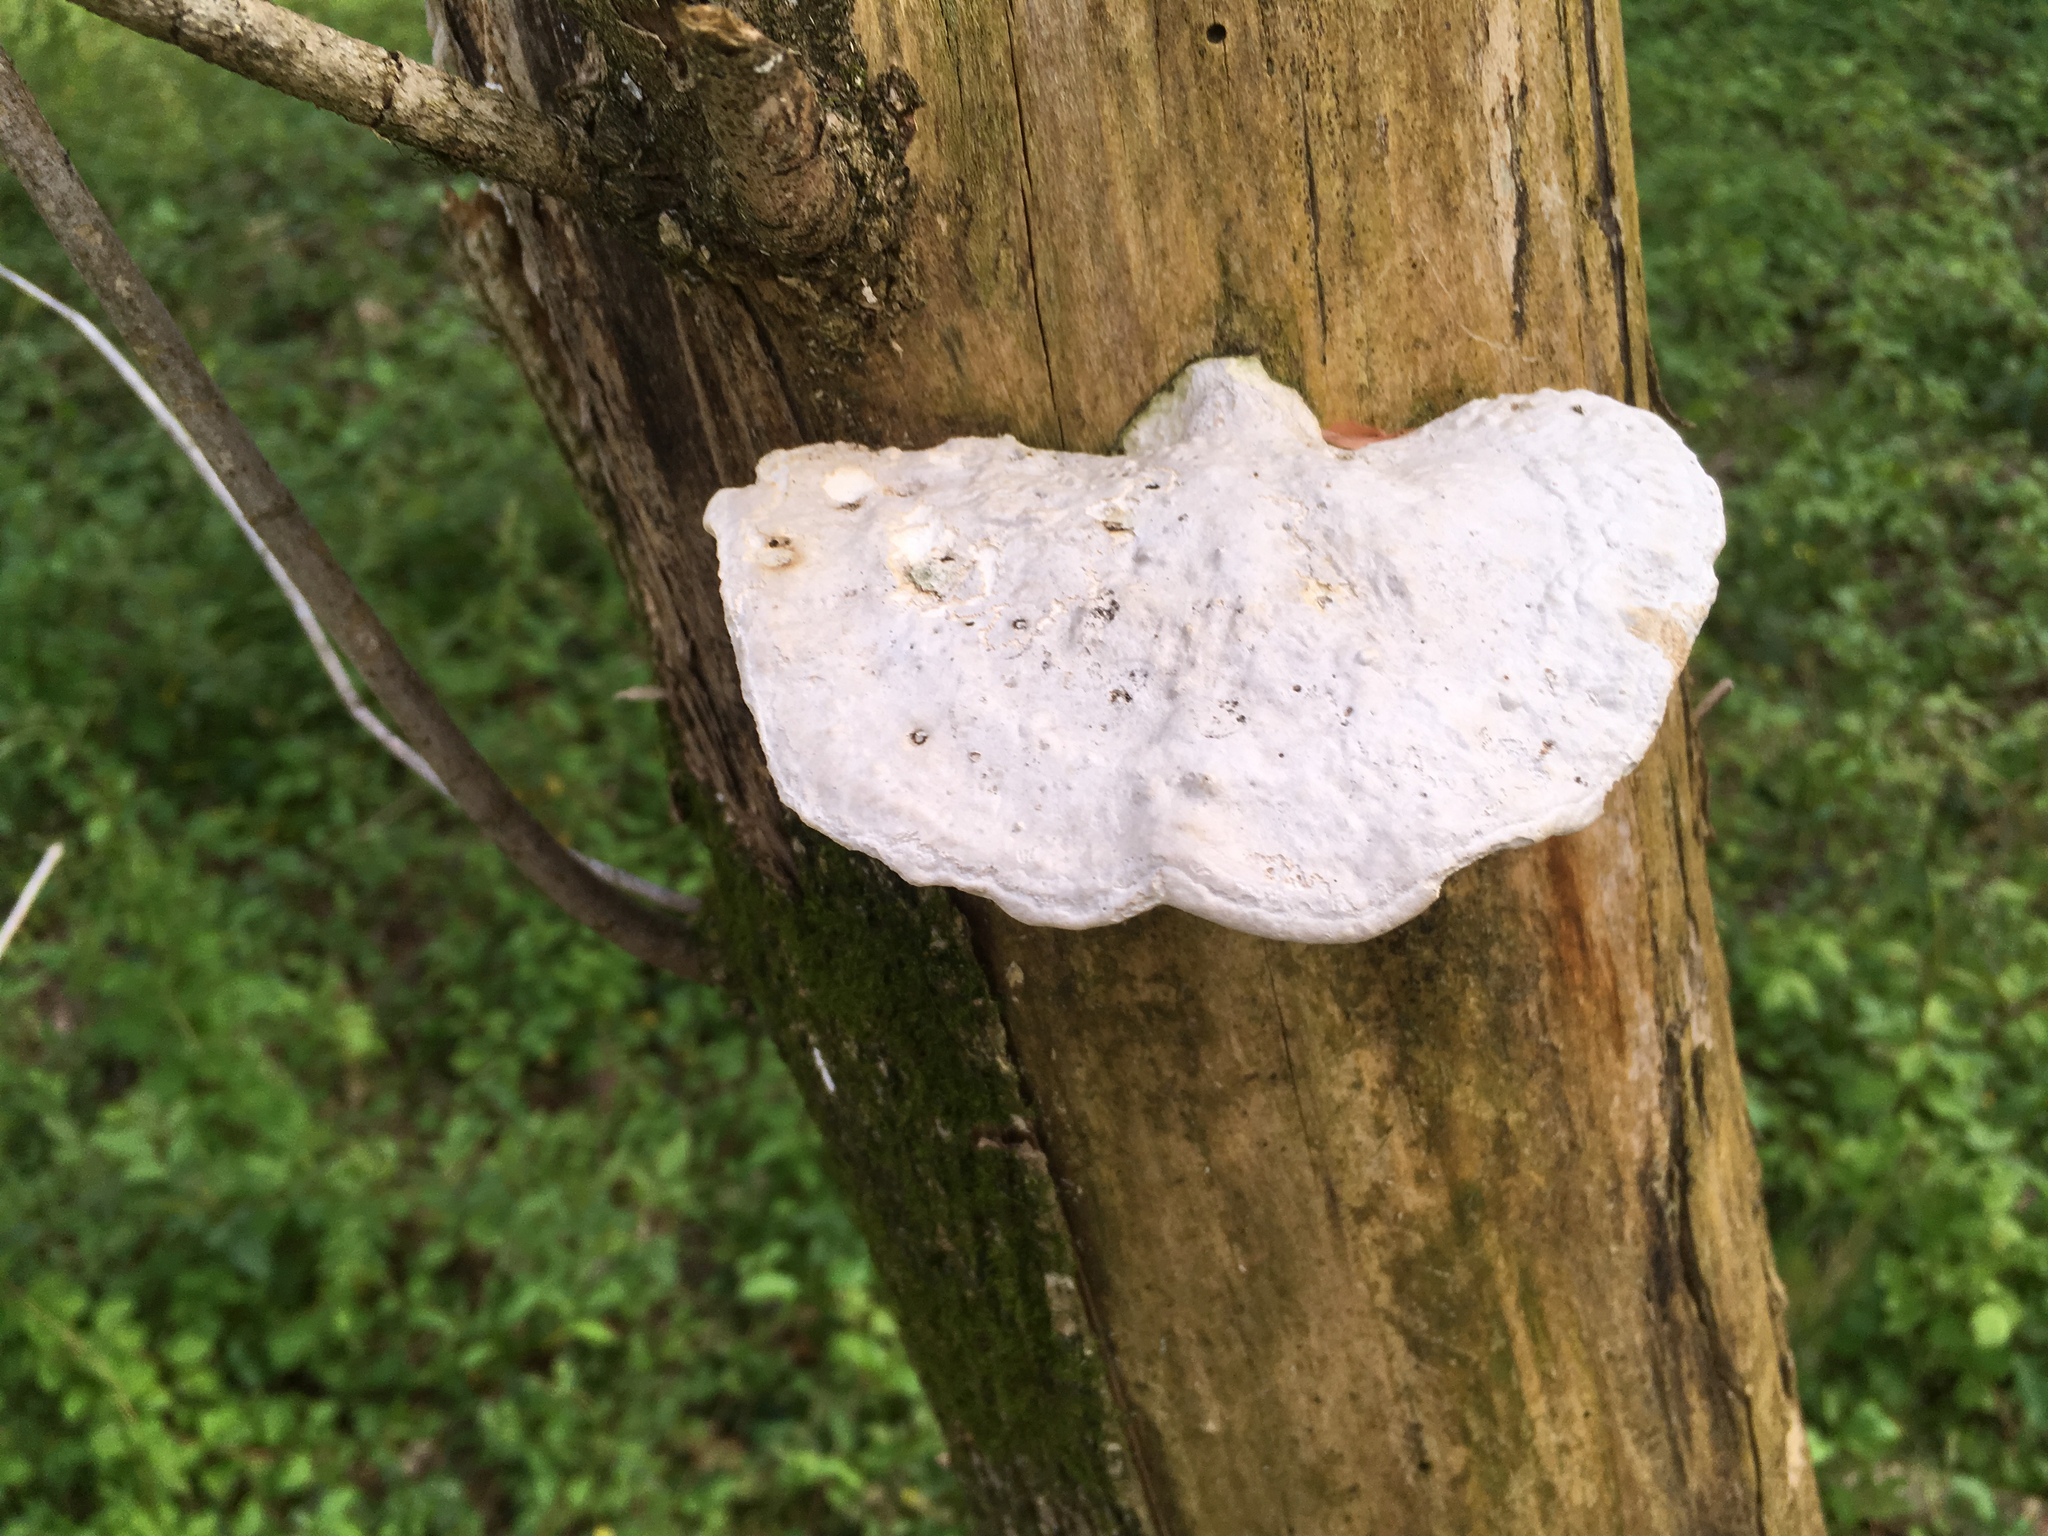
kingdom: Fungi
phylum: Basidiomycota
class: Agaricomycetes
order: Polyporales
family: Polyporaceae
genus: Trametes
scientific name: Trametes gibbosa
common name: Lumpy bracket
